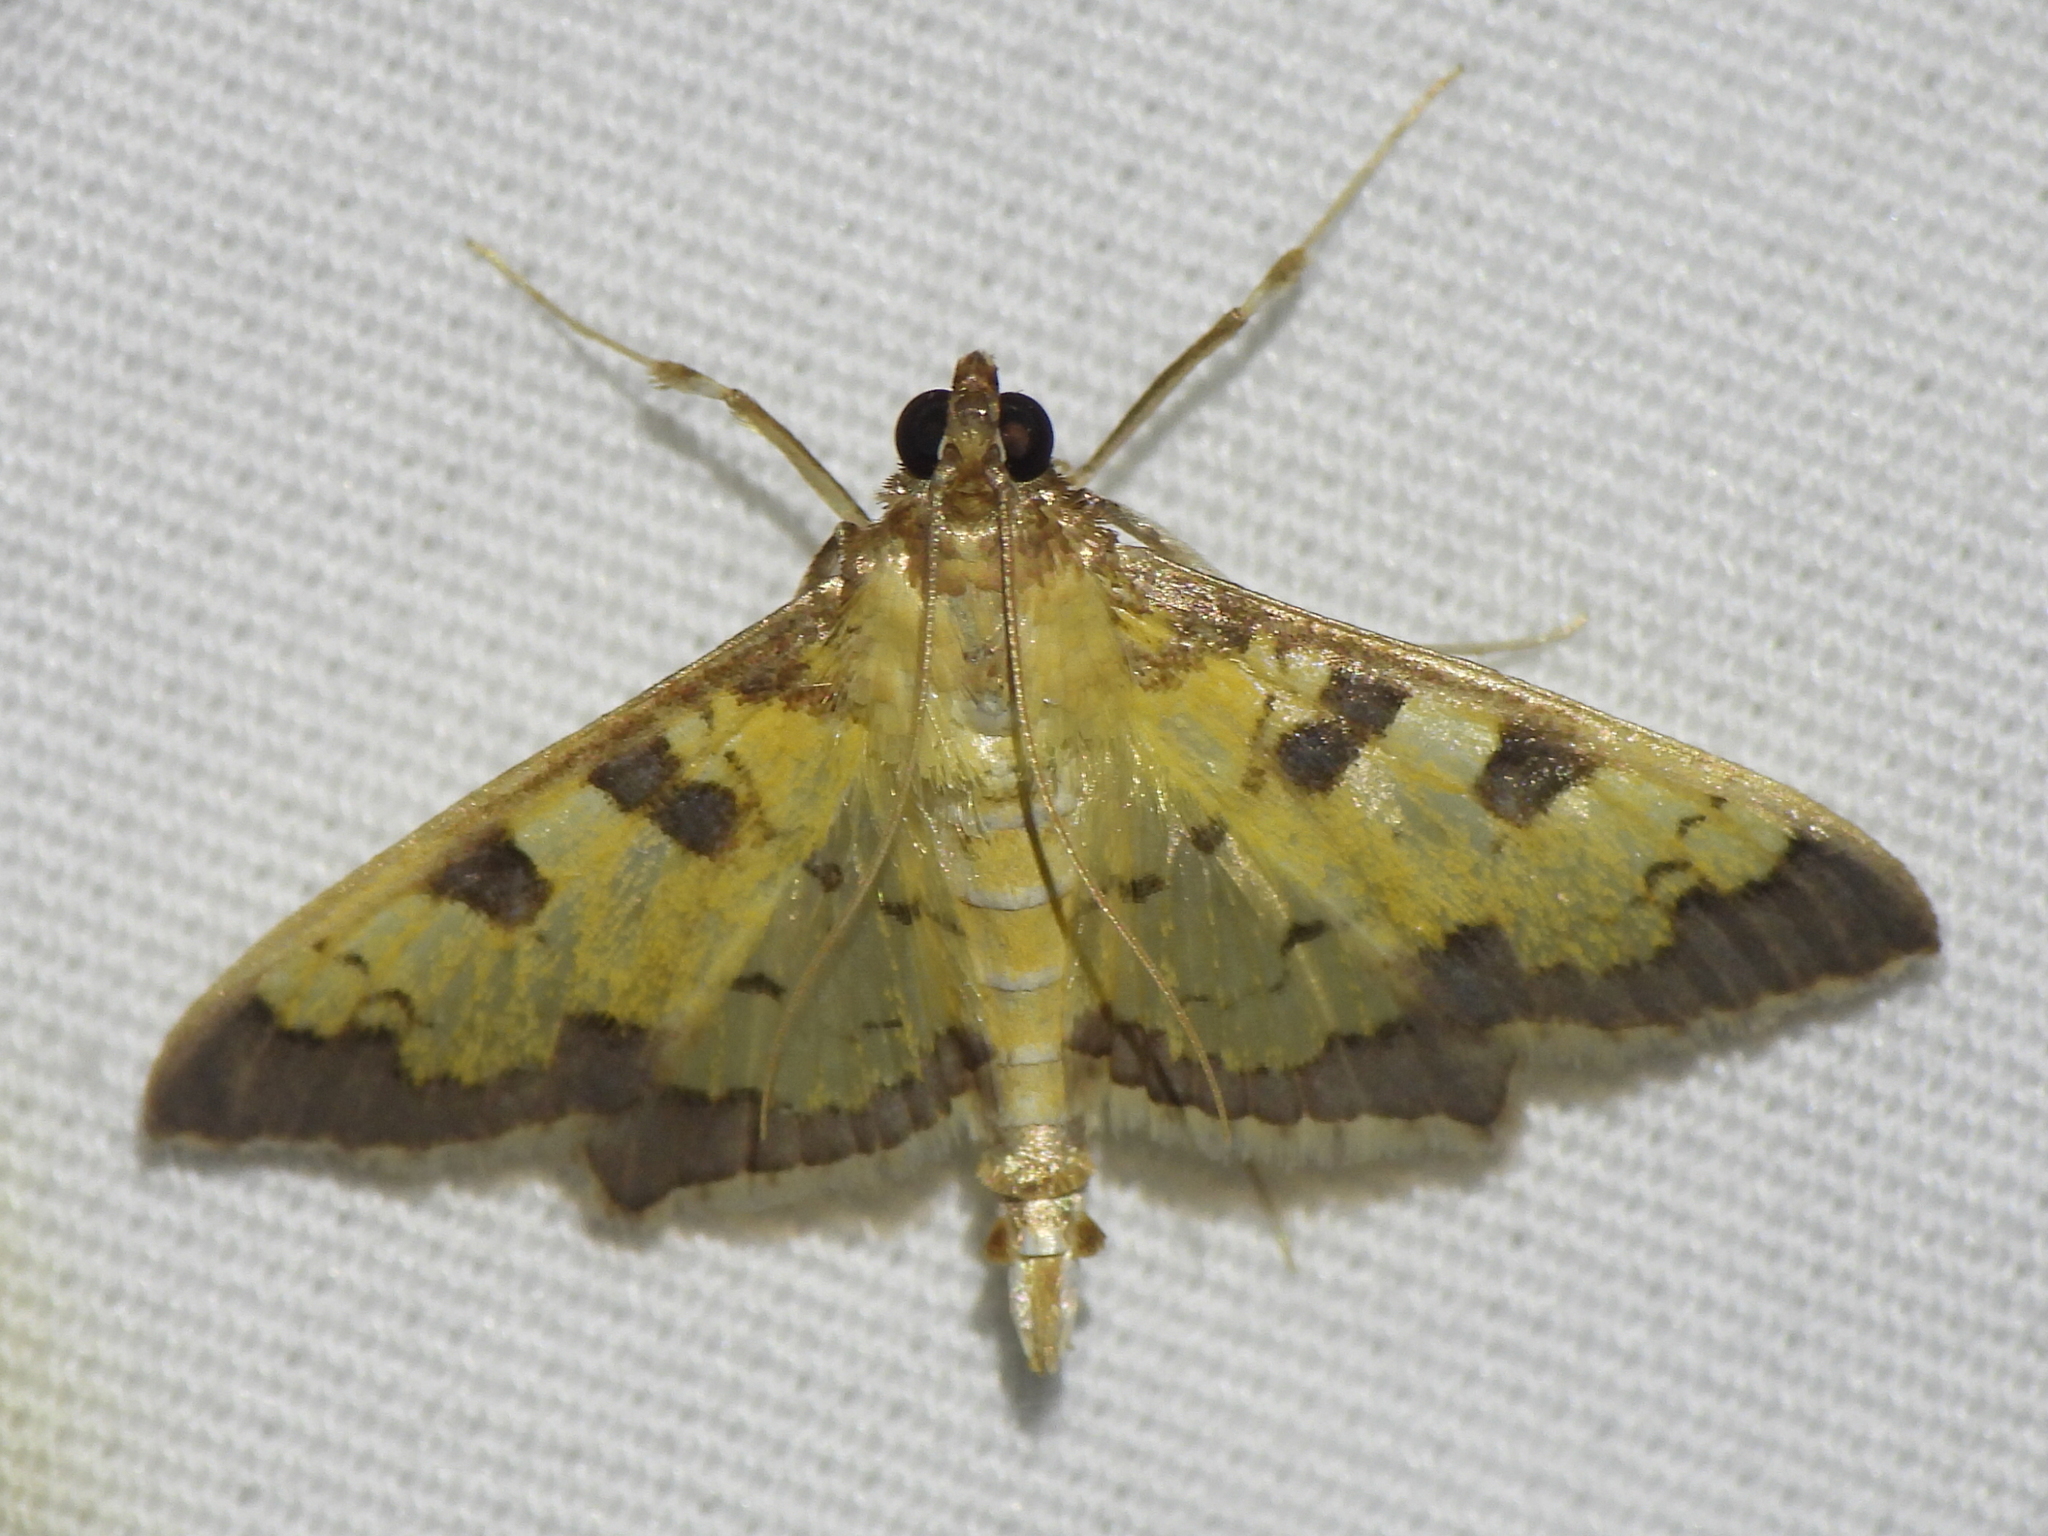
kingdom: Animalia
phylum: Arthropoda
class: Insecta
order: Lepidoptera
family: Crambidae
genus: Cryptographis
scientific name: Cryptographis elealis
